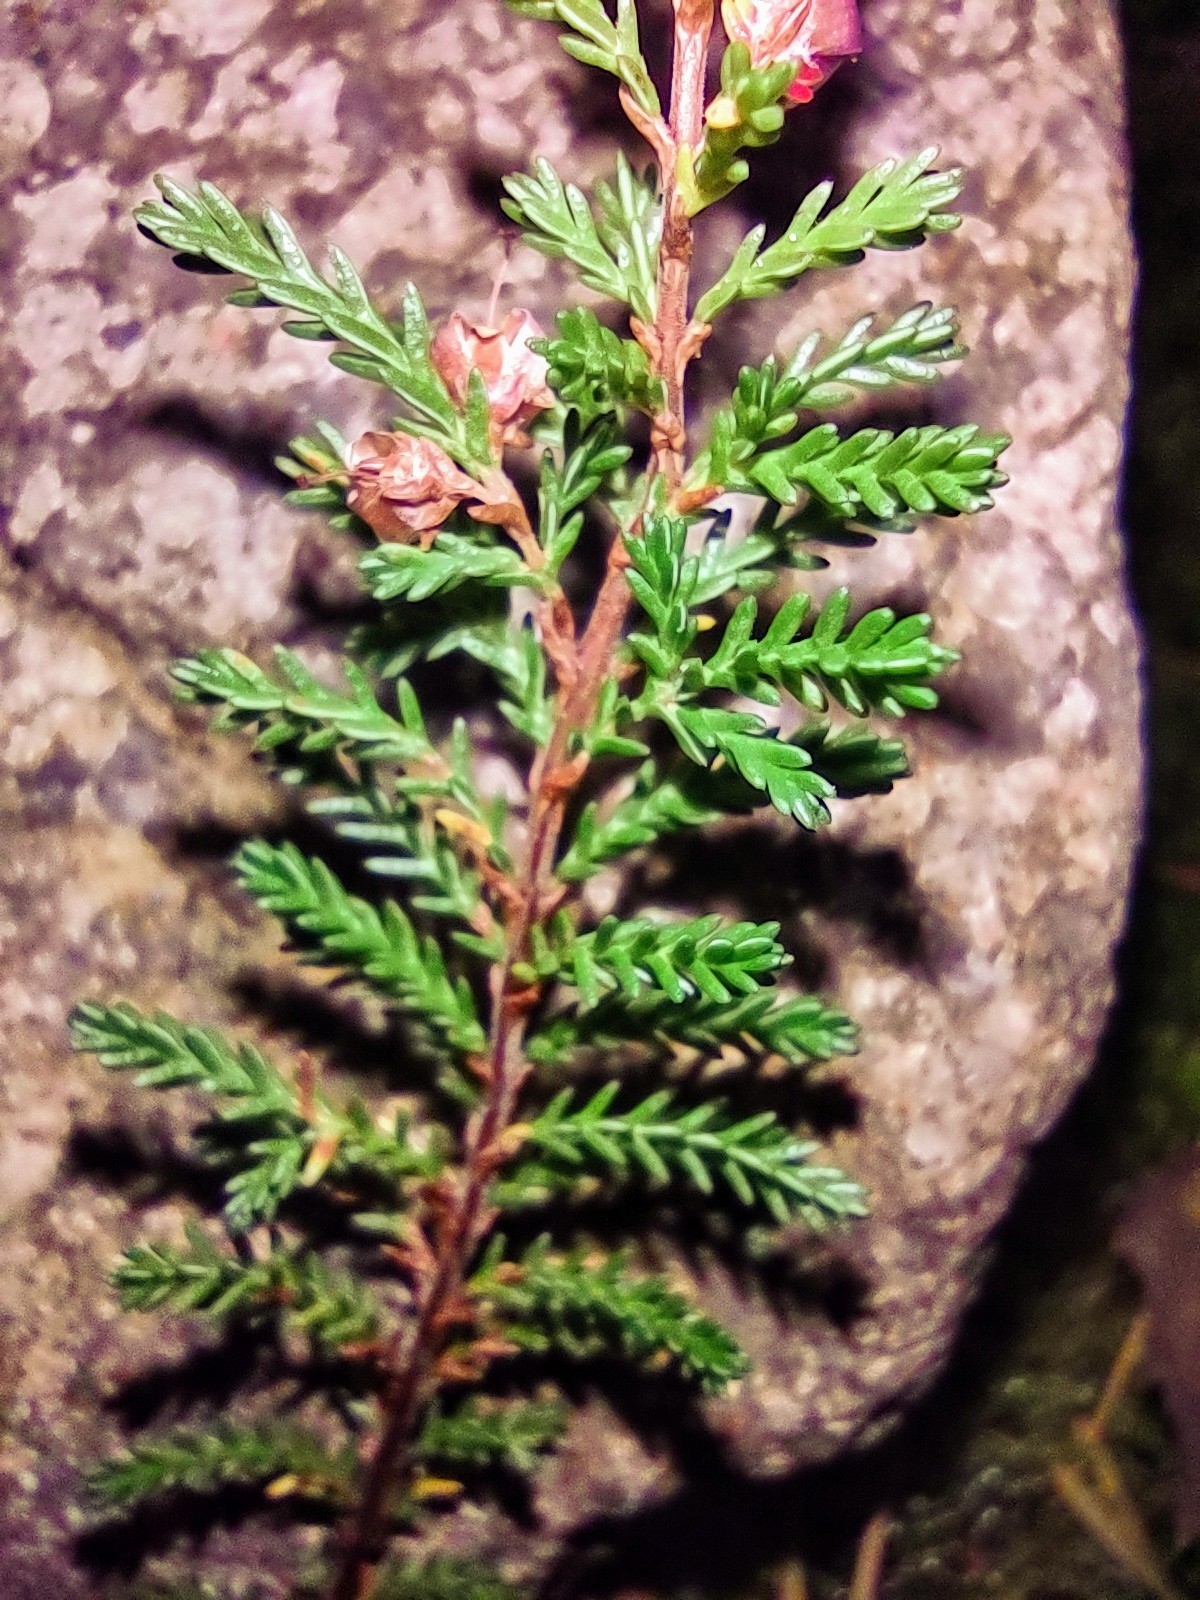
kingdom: Plantae
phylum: Tracheophyta
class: Magnoliopsida
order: Ericales
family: Ericaceae
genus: Calluna
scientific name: Calluna vulgaris
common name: Heather
